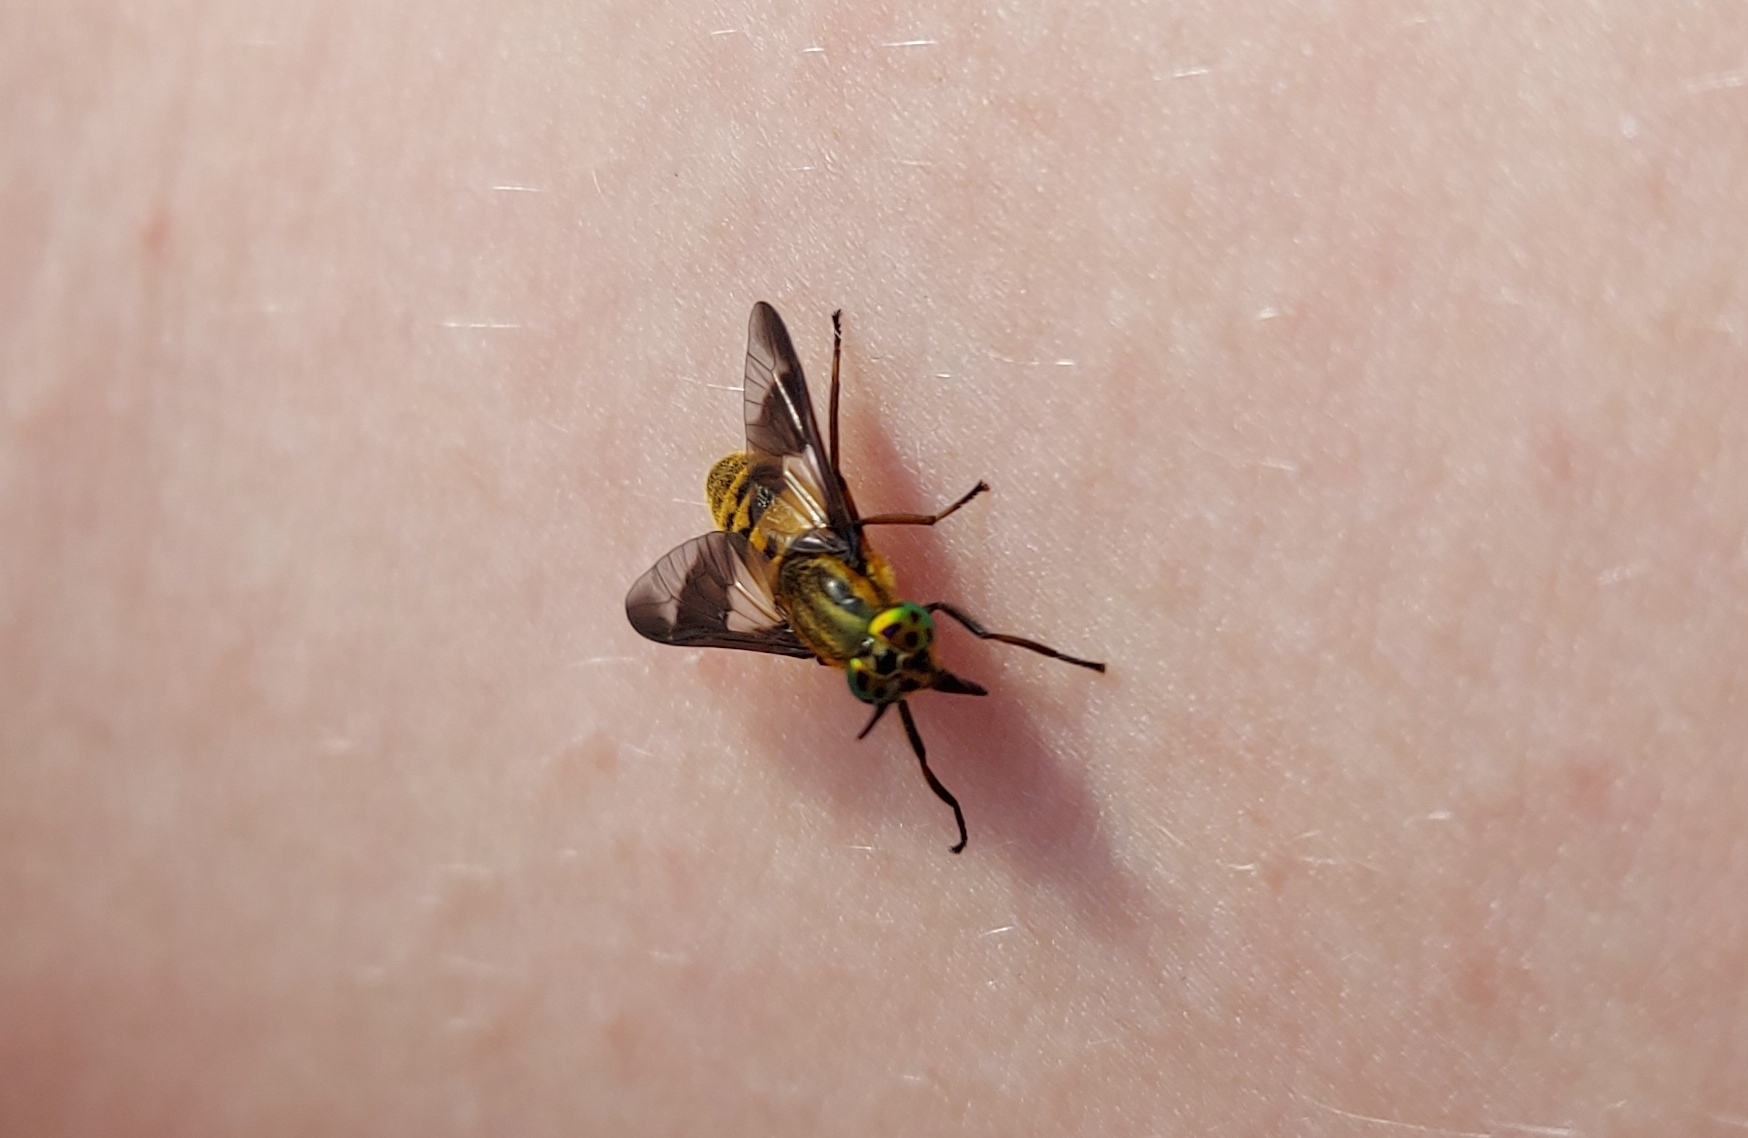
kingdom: Animalia
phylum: Arthropoda
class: Insecta
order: Diptera
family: Tabanidae
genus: Chrysops
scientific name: Chrysops viduatus
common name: Square-spot deerfly
